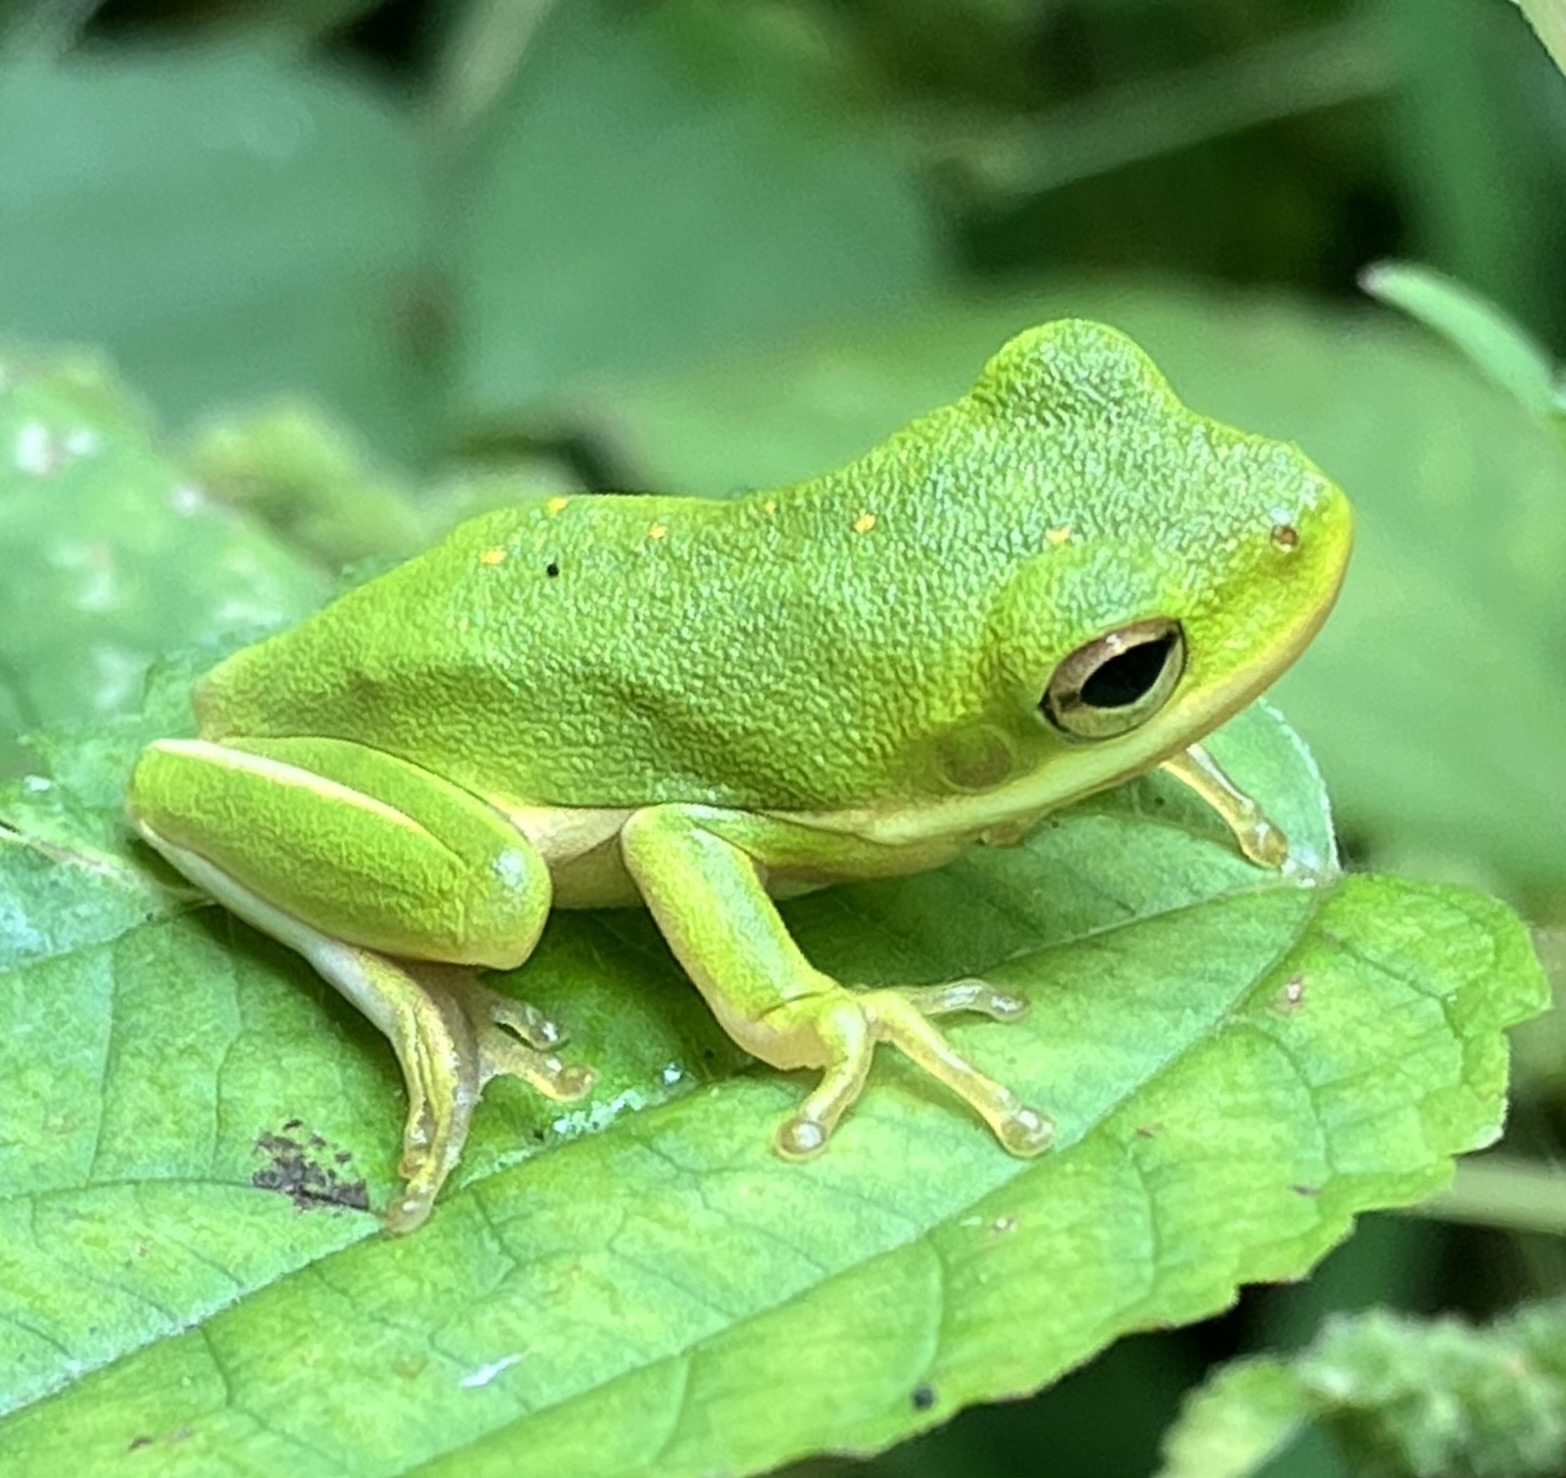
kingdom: Animalia
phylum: Chordata
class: Amphibia
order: Anura
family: Hylidae
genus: Dryophytes
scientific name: Dryophytes cinereus
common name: Green treefrog
